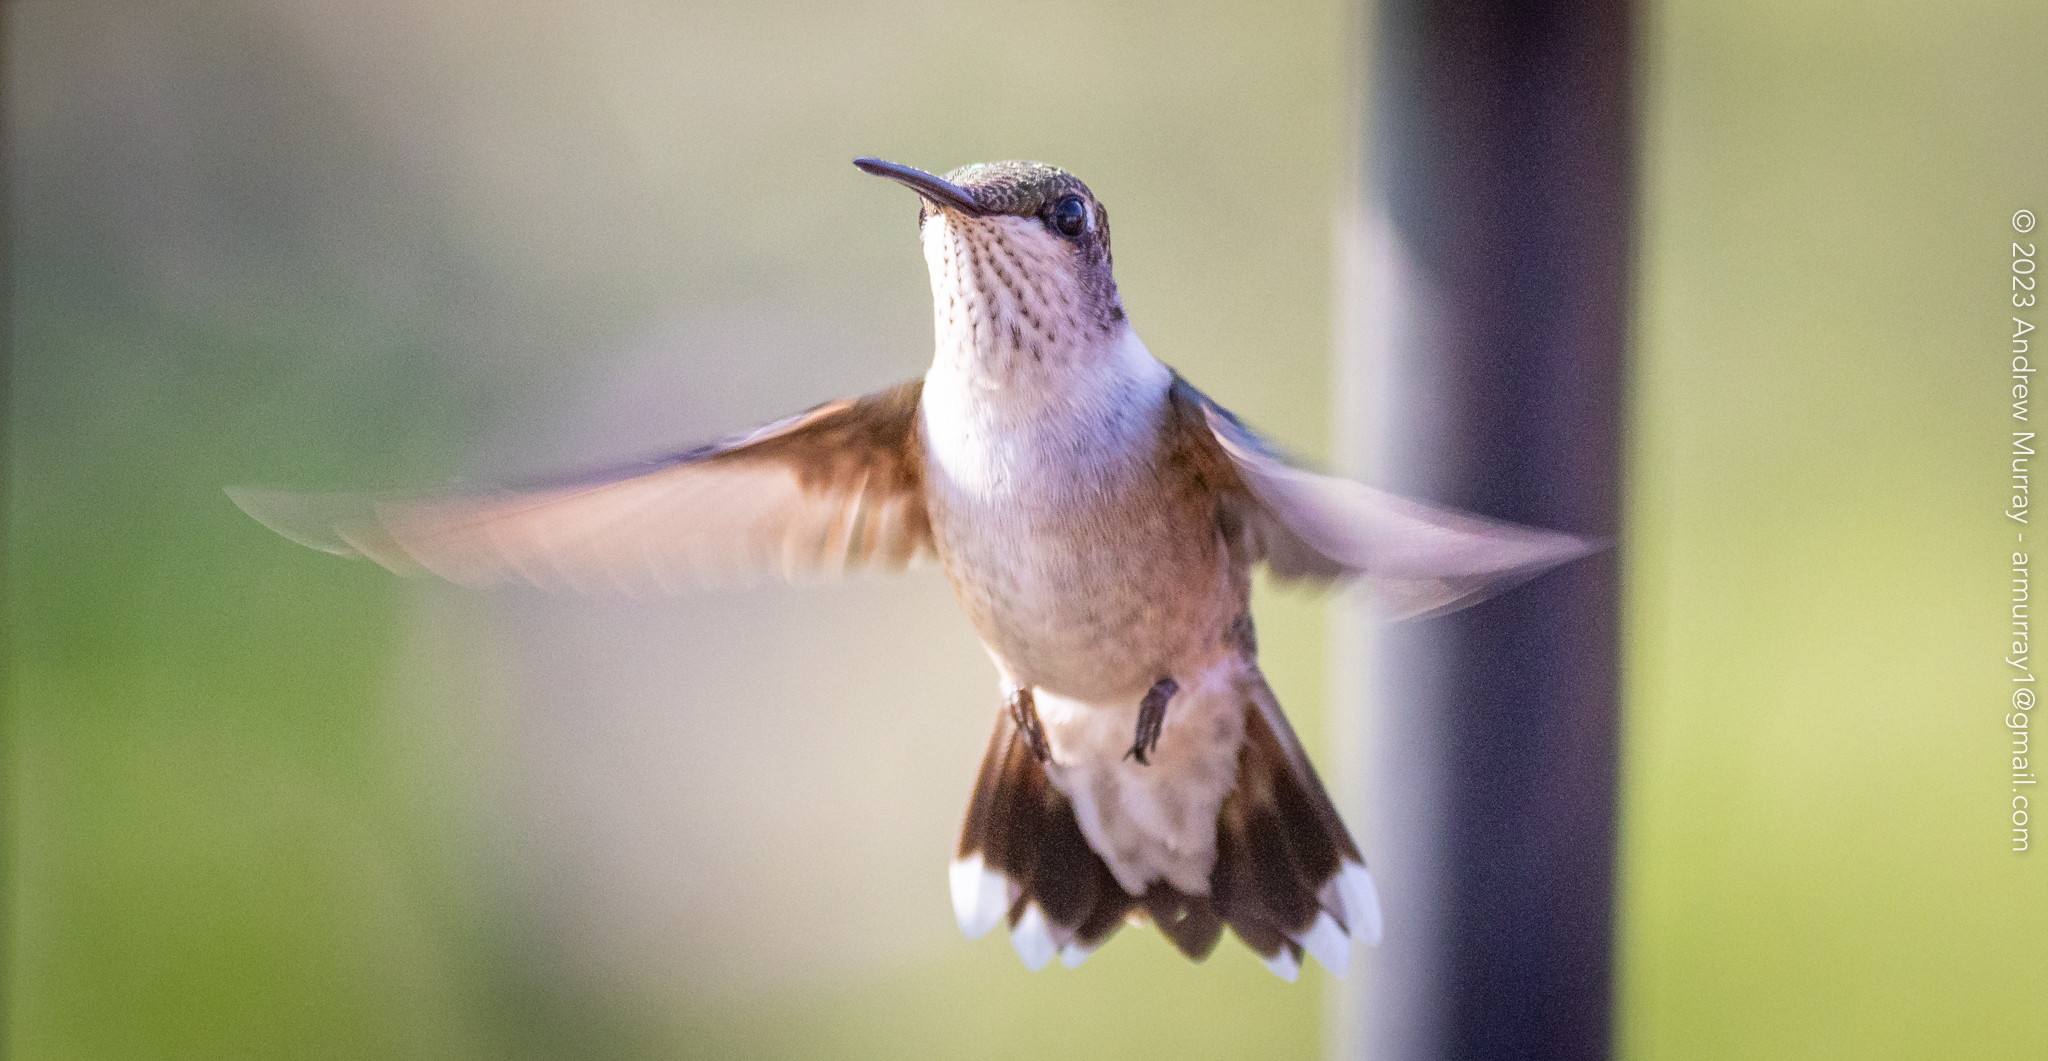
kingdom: Animalia
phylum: Chordata
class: Aves
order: Apodiformes
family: Trochilidae
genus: Archilochus
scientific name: Archilochus colubris
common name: Ruby-throated hummingbird
